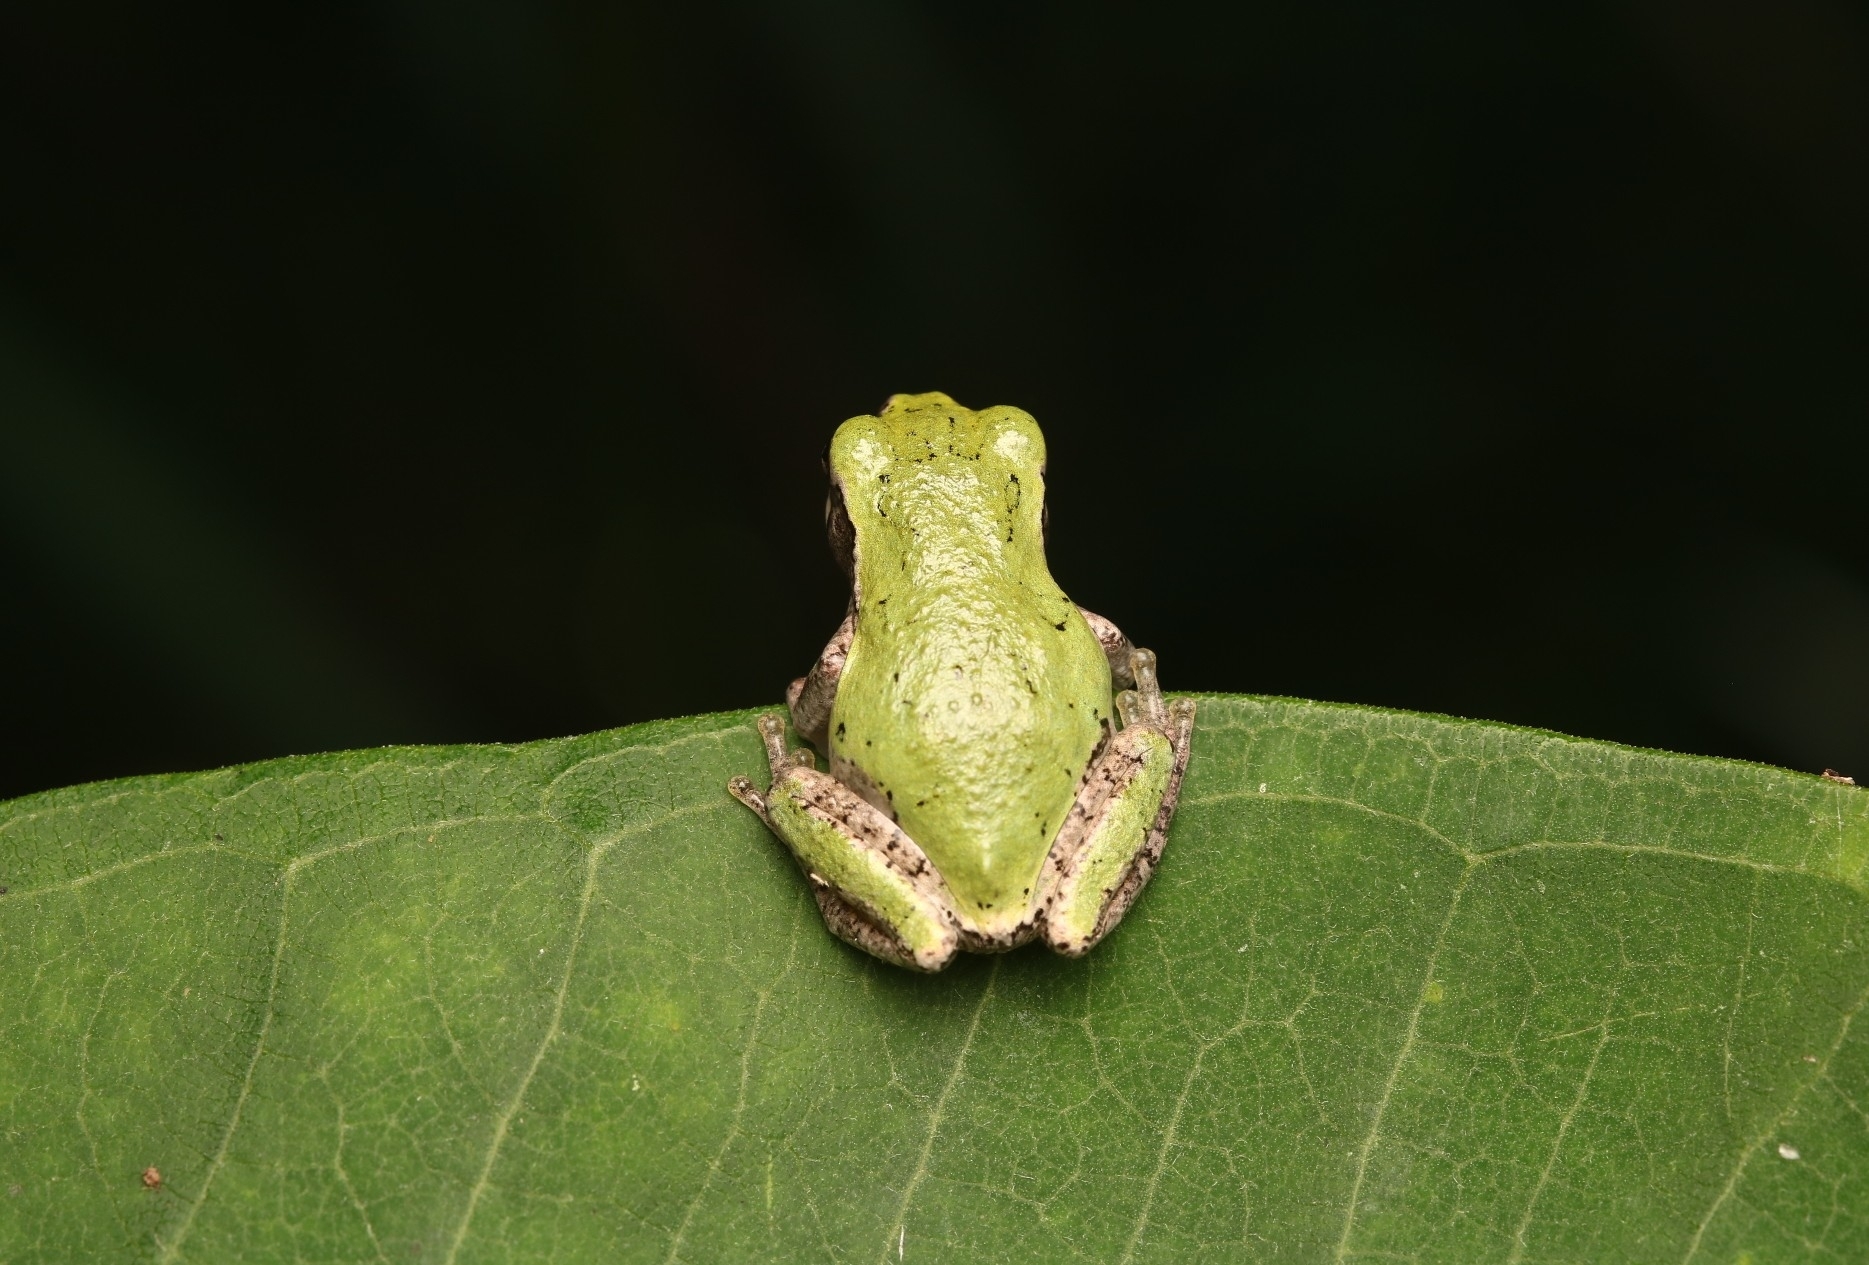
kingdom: Animalia
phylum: Chordata
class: Amphibia
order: Anura
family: Hylidae
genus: Hyla
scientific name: Hyla
